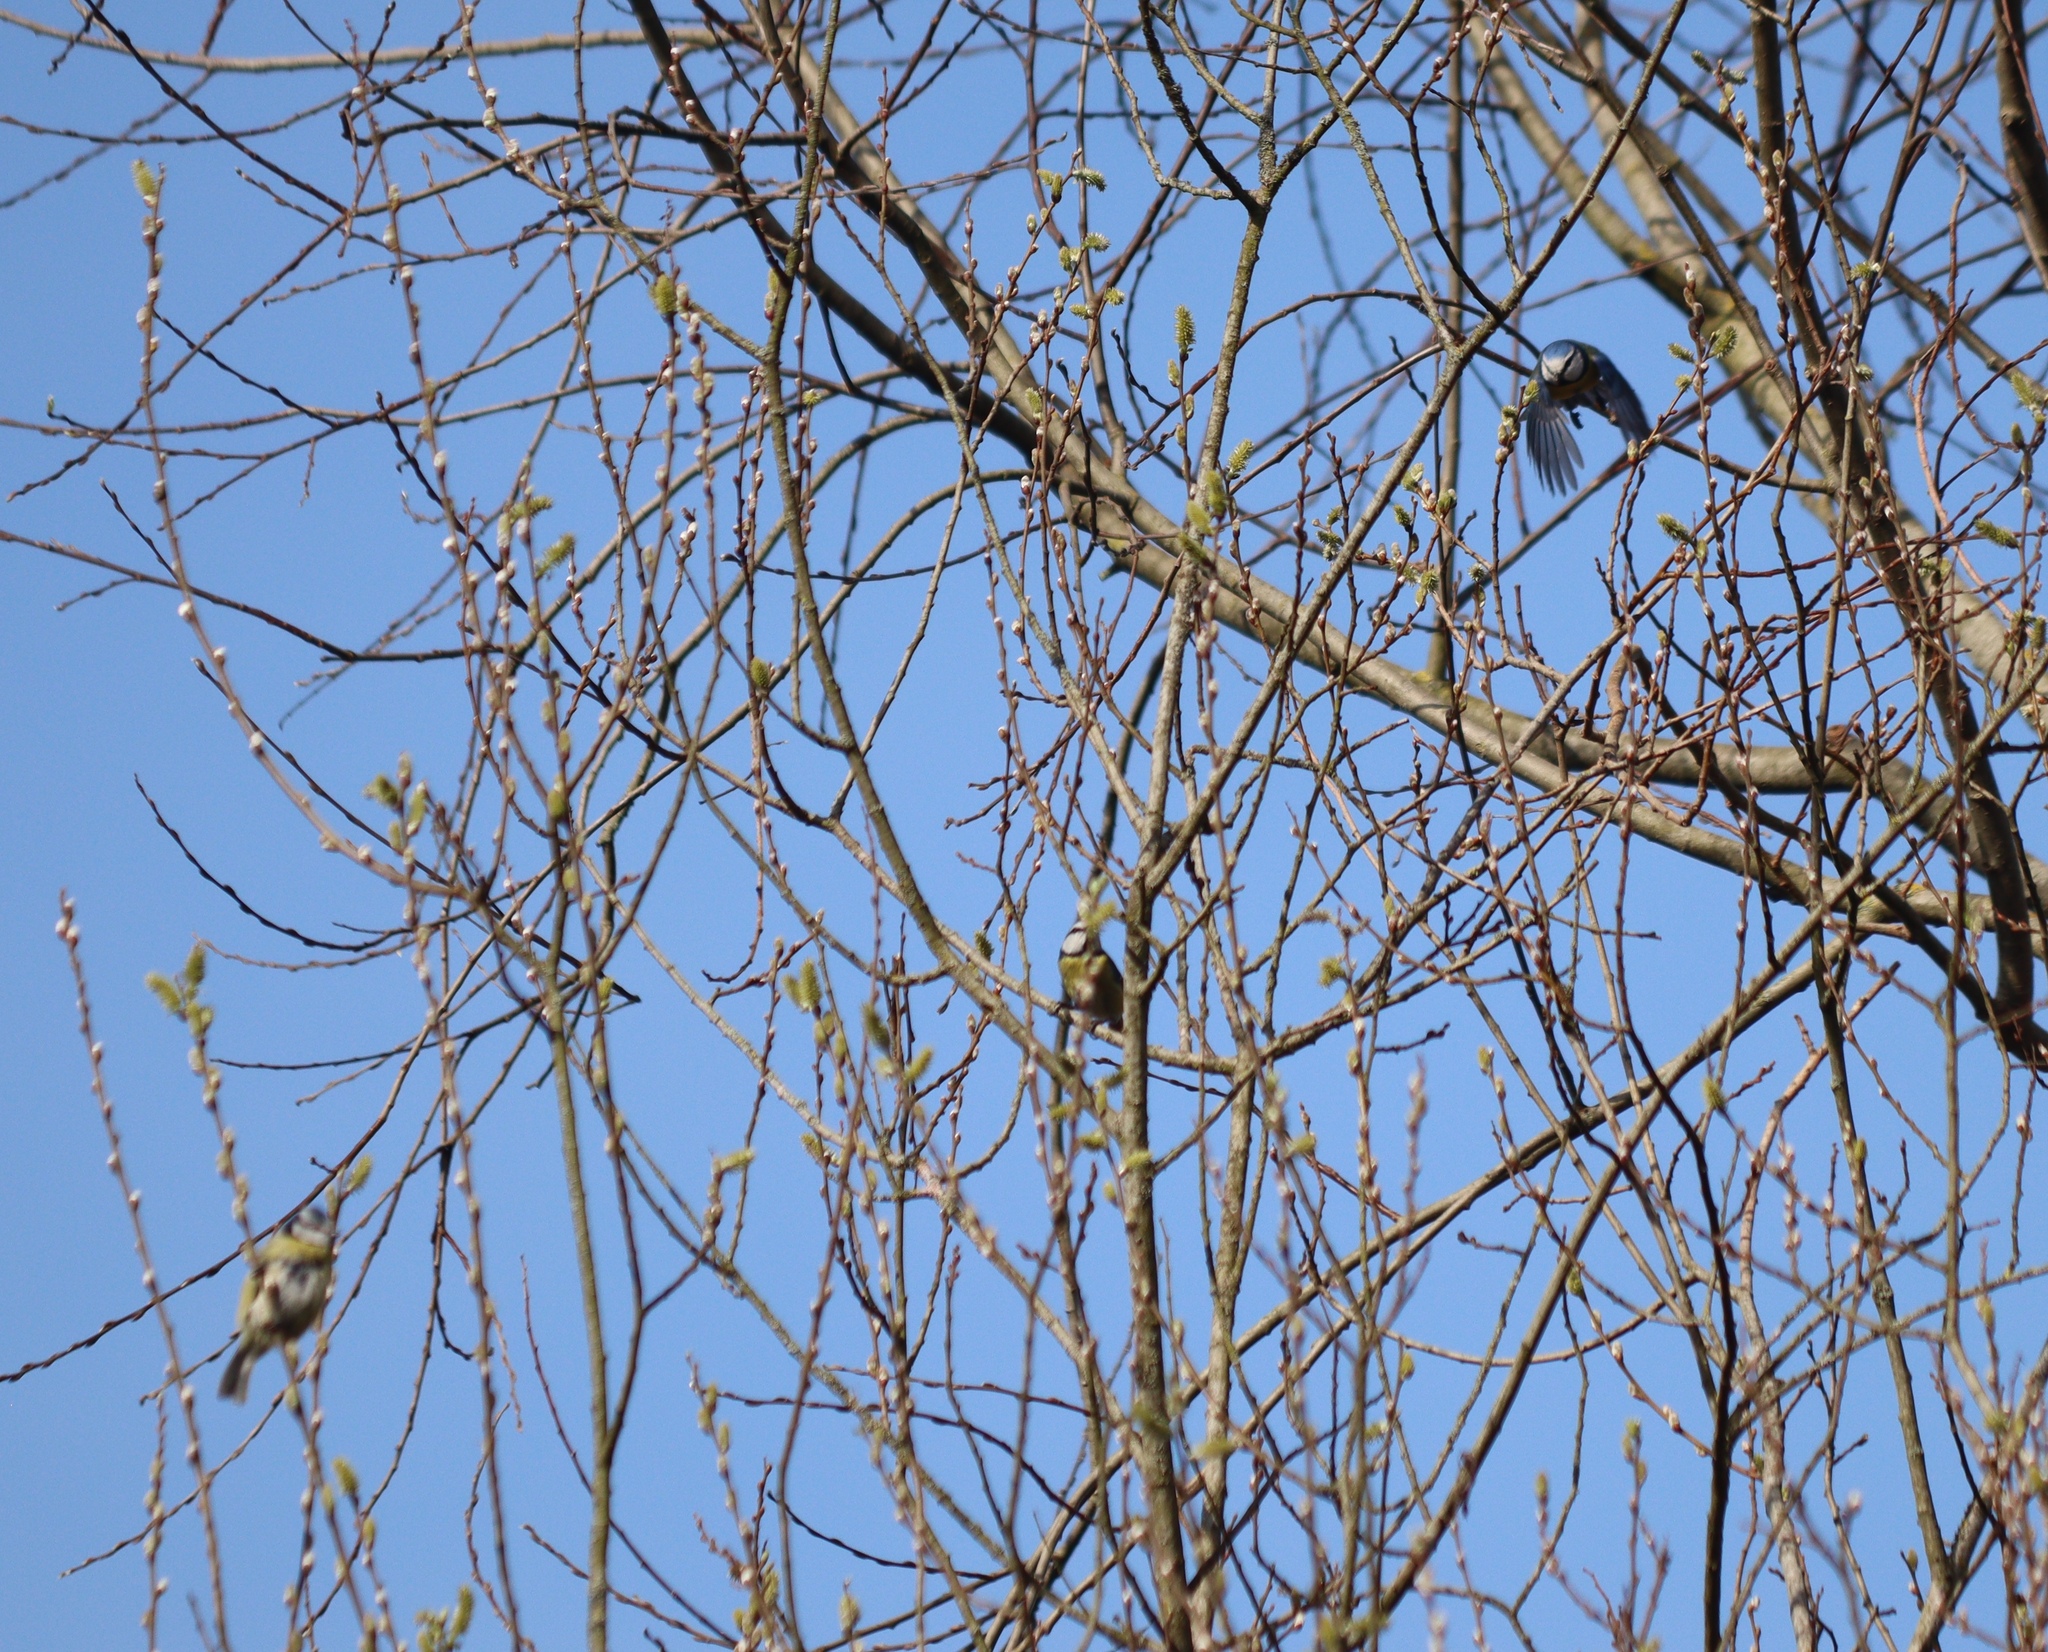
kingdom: Animalia
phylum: Chordata
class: Aves
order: Passeriformes
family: Paridae
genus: Cyanistes
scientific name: Cyanistes caeruleus
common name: Eurasian blue tit
